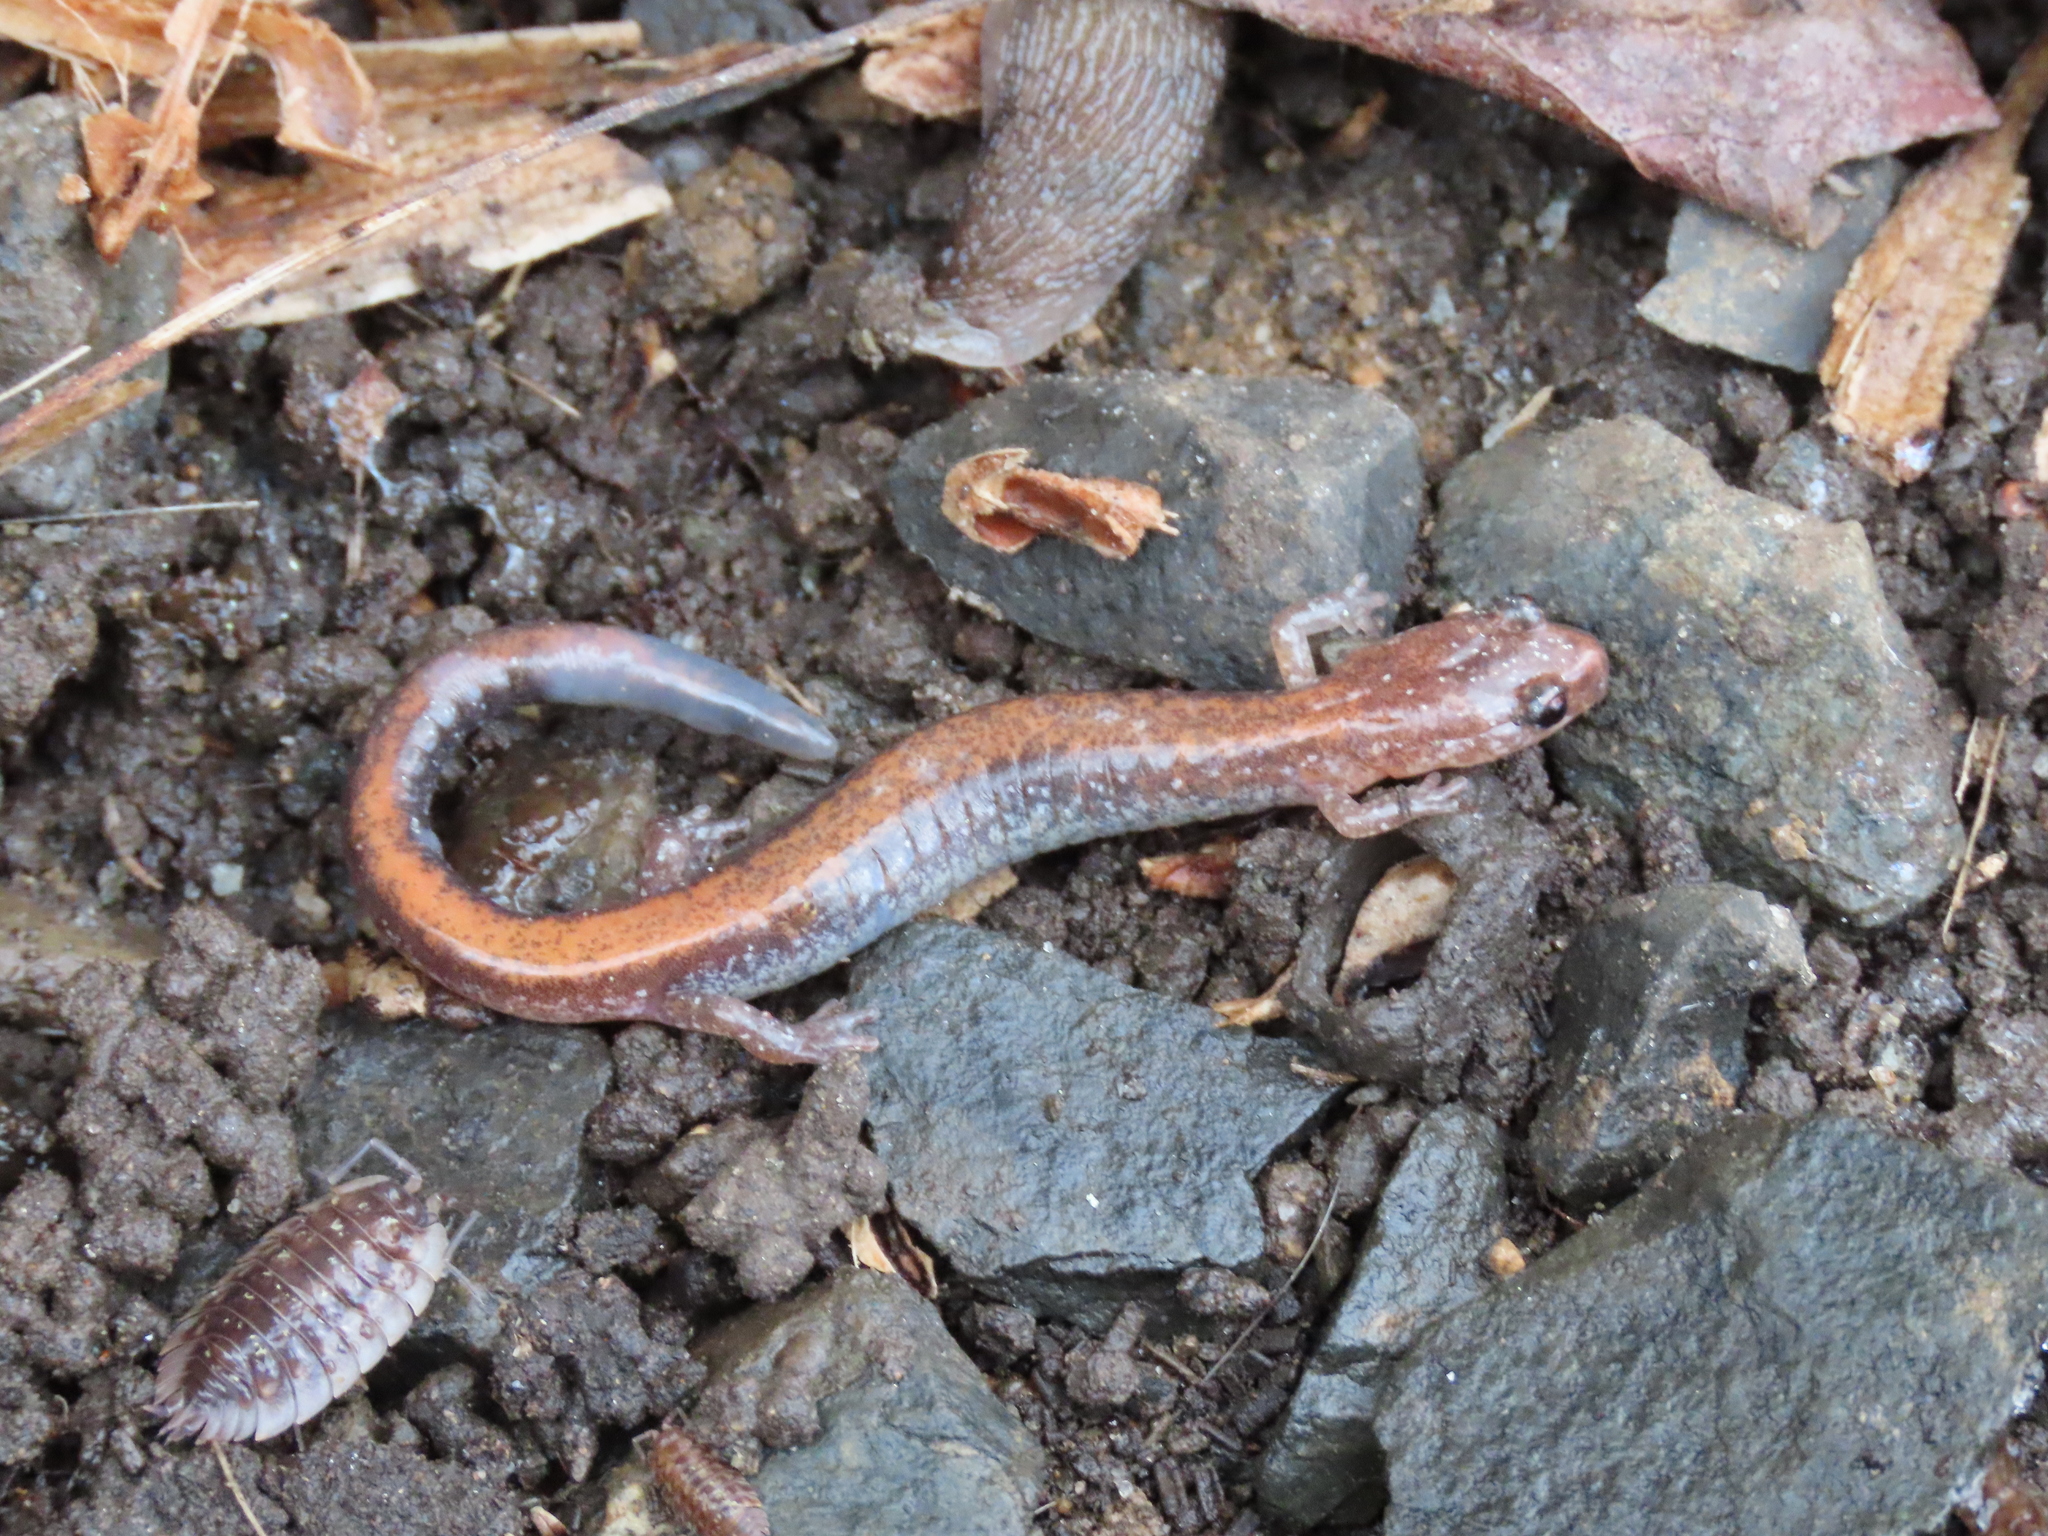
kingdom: Animalia
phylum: Chordata
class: Amphibia
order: Caudata
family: Plethodontidae
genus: Plethodon
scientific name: Plethodon cinereus
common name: Redback salamander
